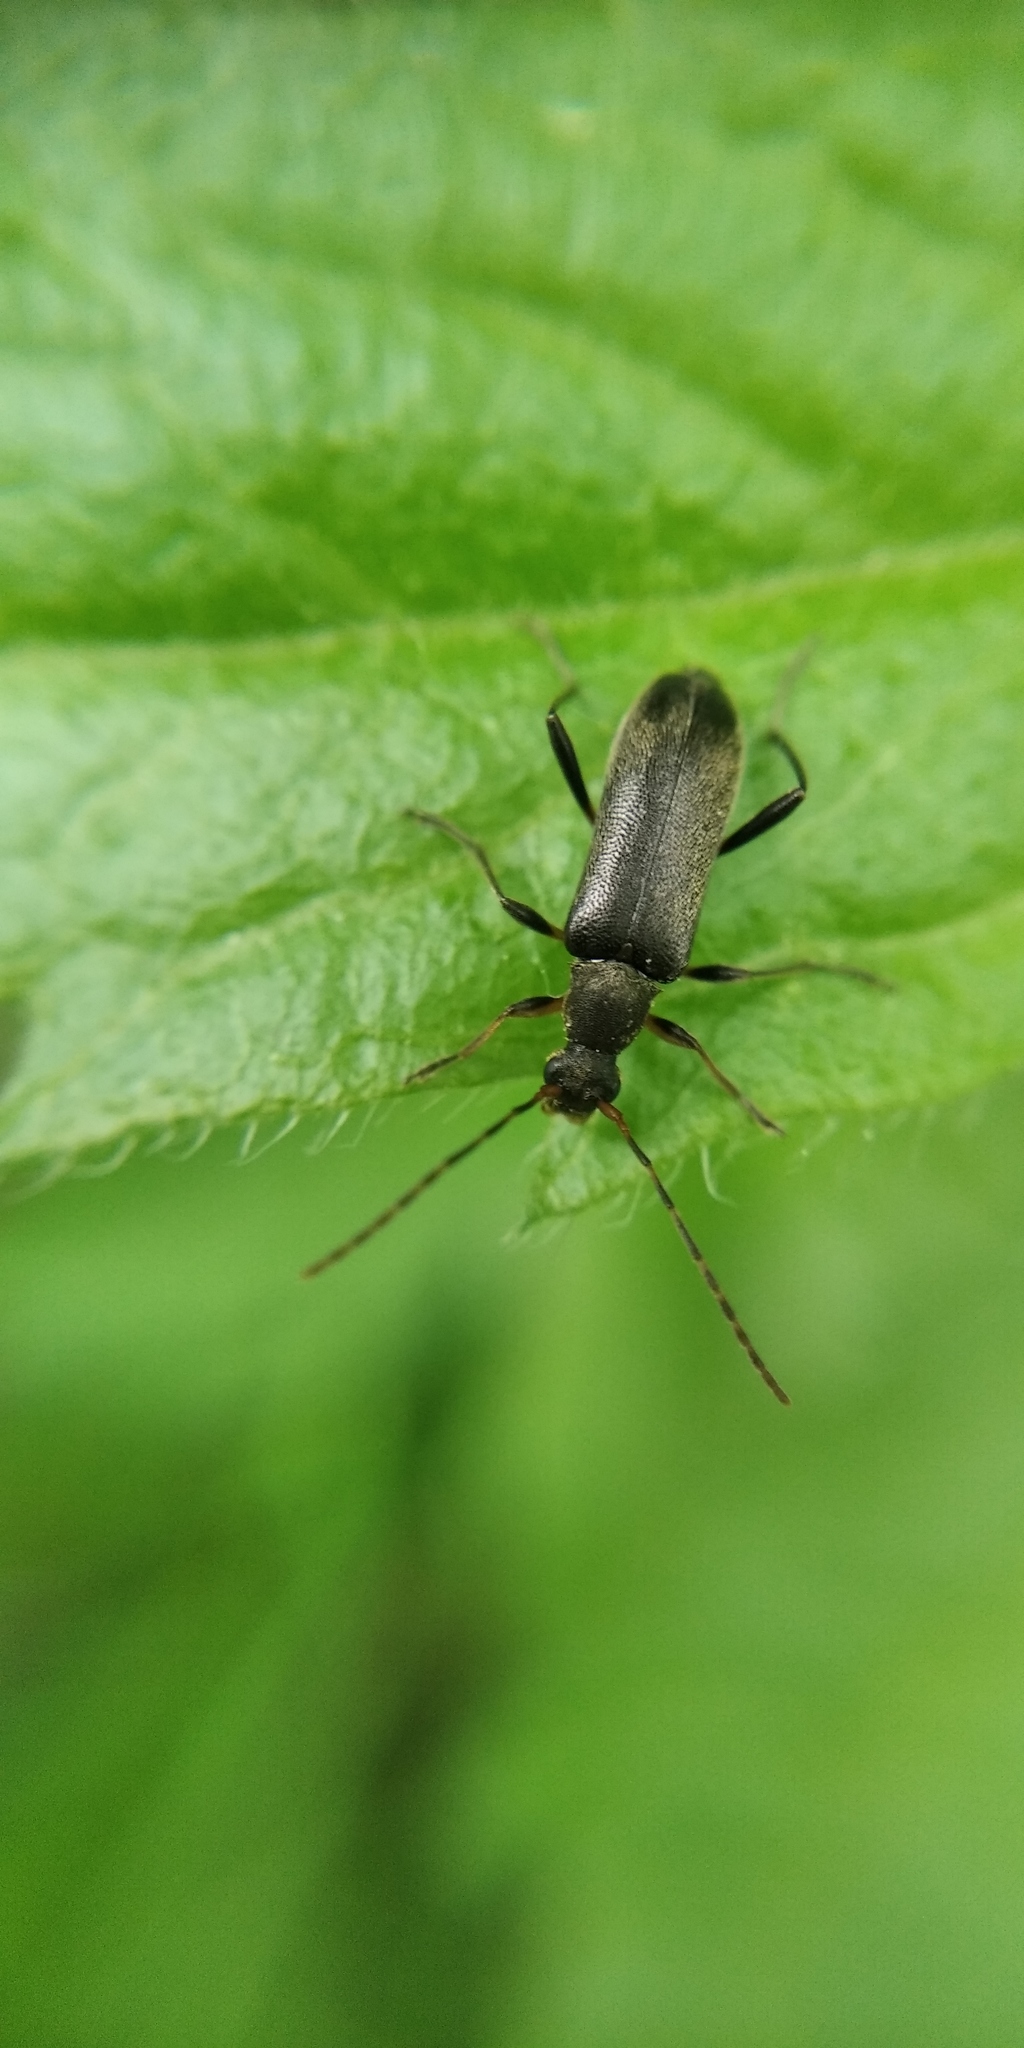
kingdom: Animalia
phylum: Arthropoda
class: Insecta
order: Coleoptera
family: Cerambycidae
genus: Grammoptera
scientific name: Grammoptera ruficornis
